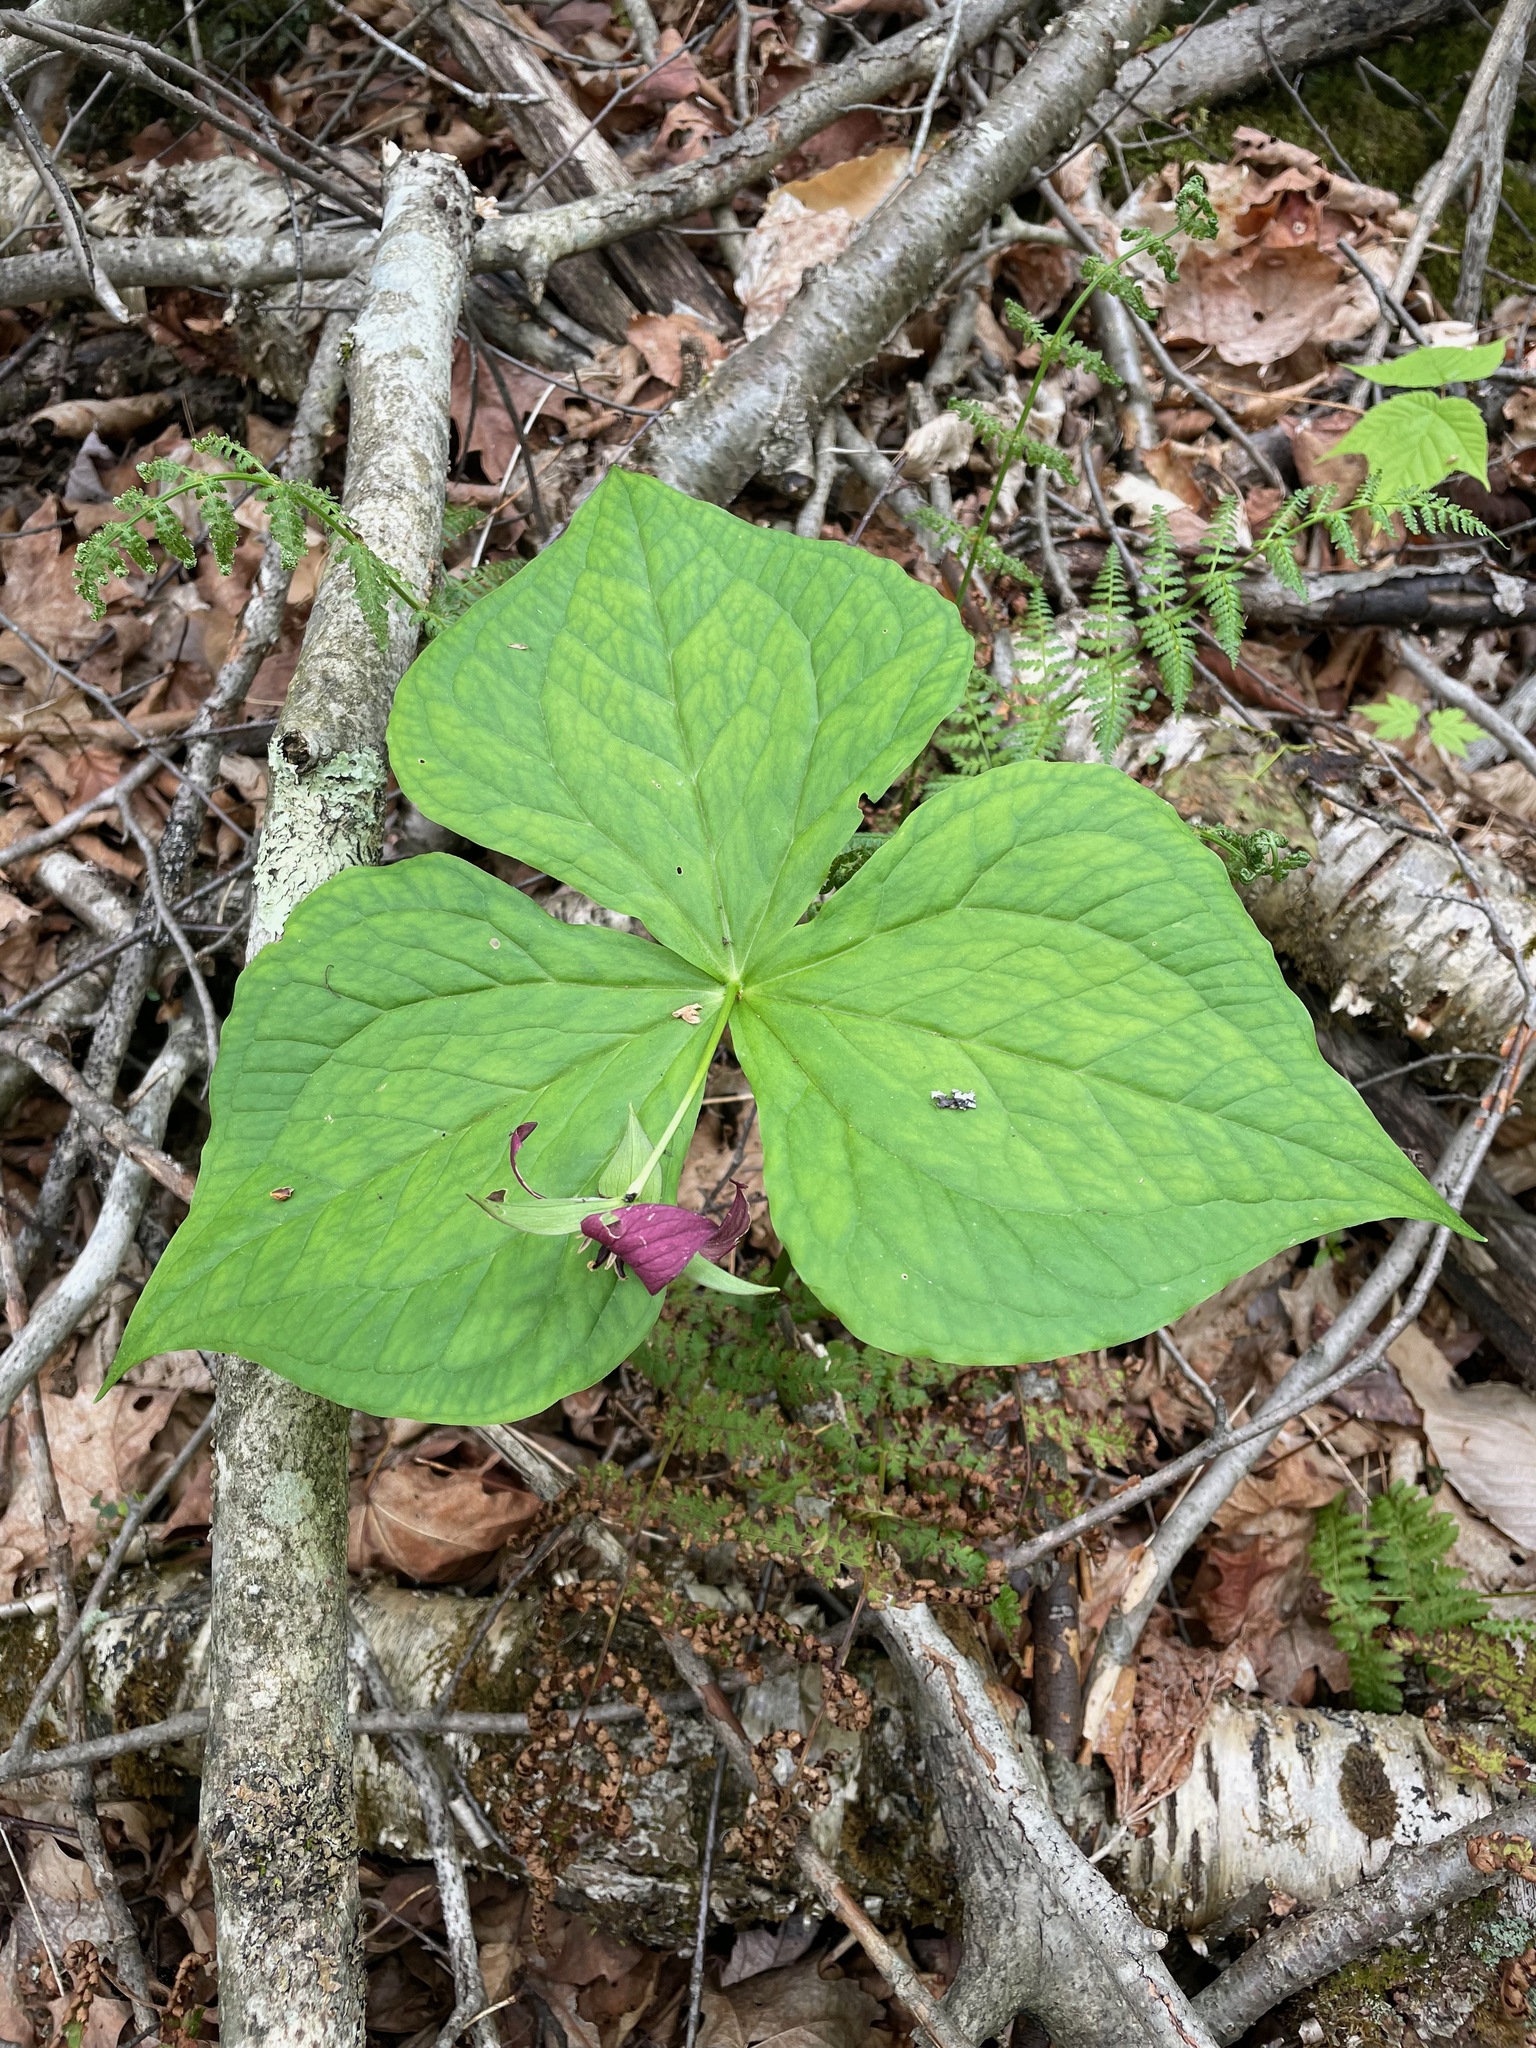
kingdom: Plantae
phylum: Tracheophyta
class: Liliopsida
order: Liliales
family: Melanthiaceae
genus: Trillium
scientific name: Trillium erectum
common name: Purple trillium
